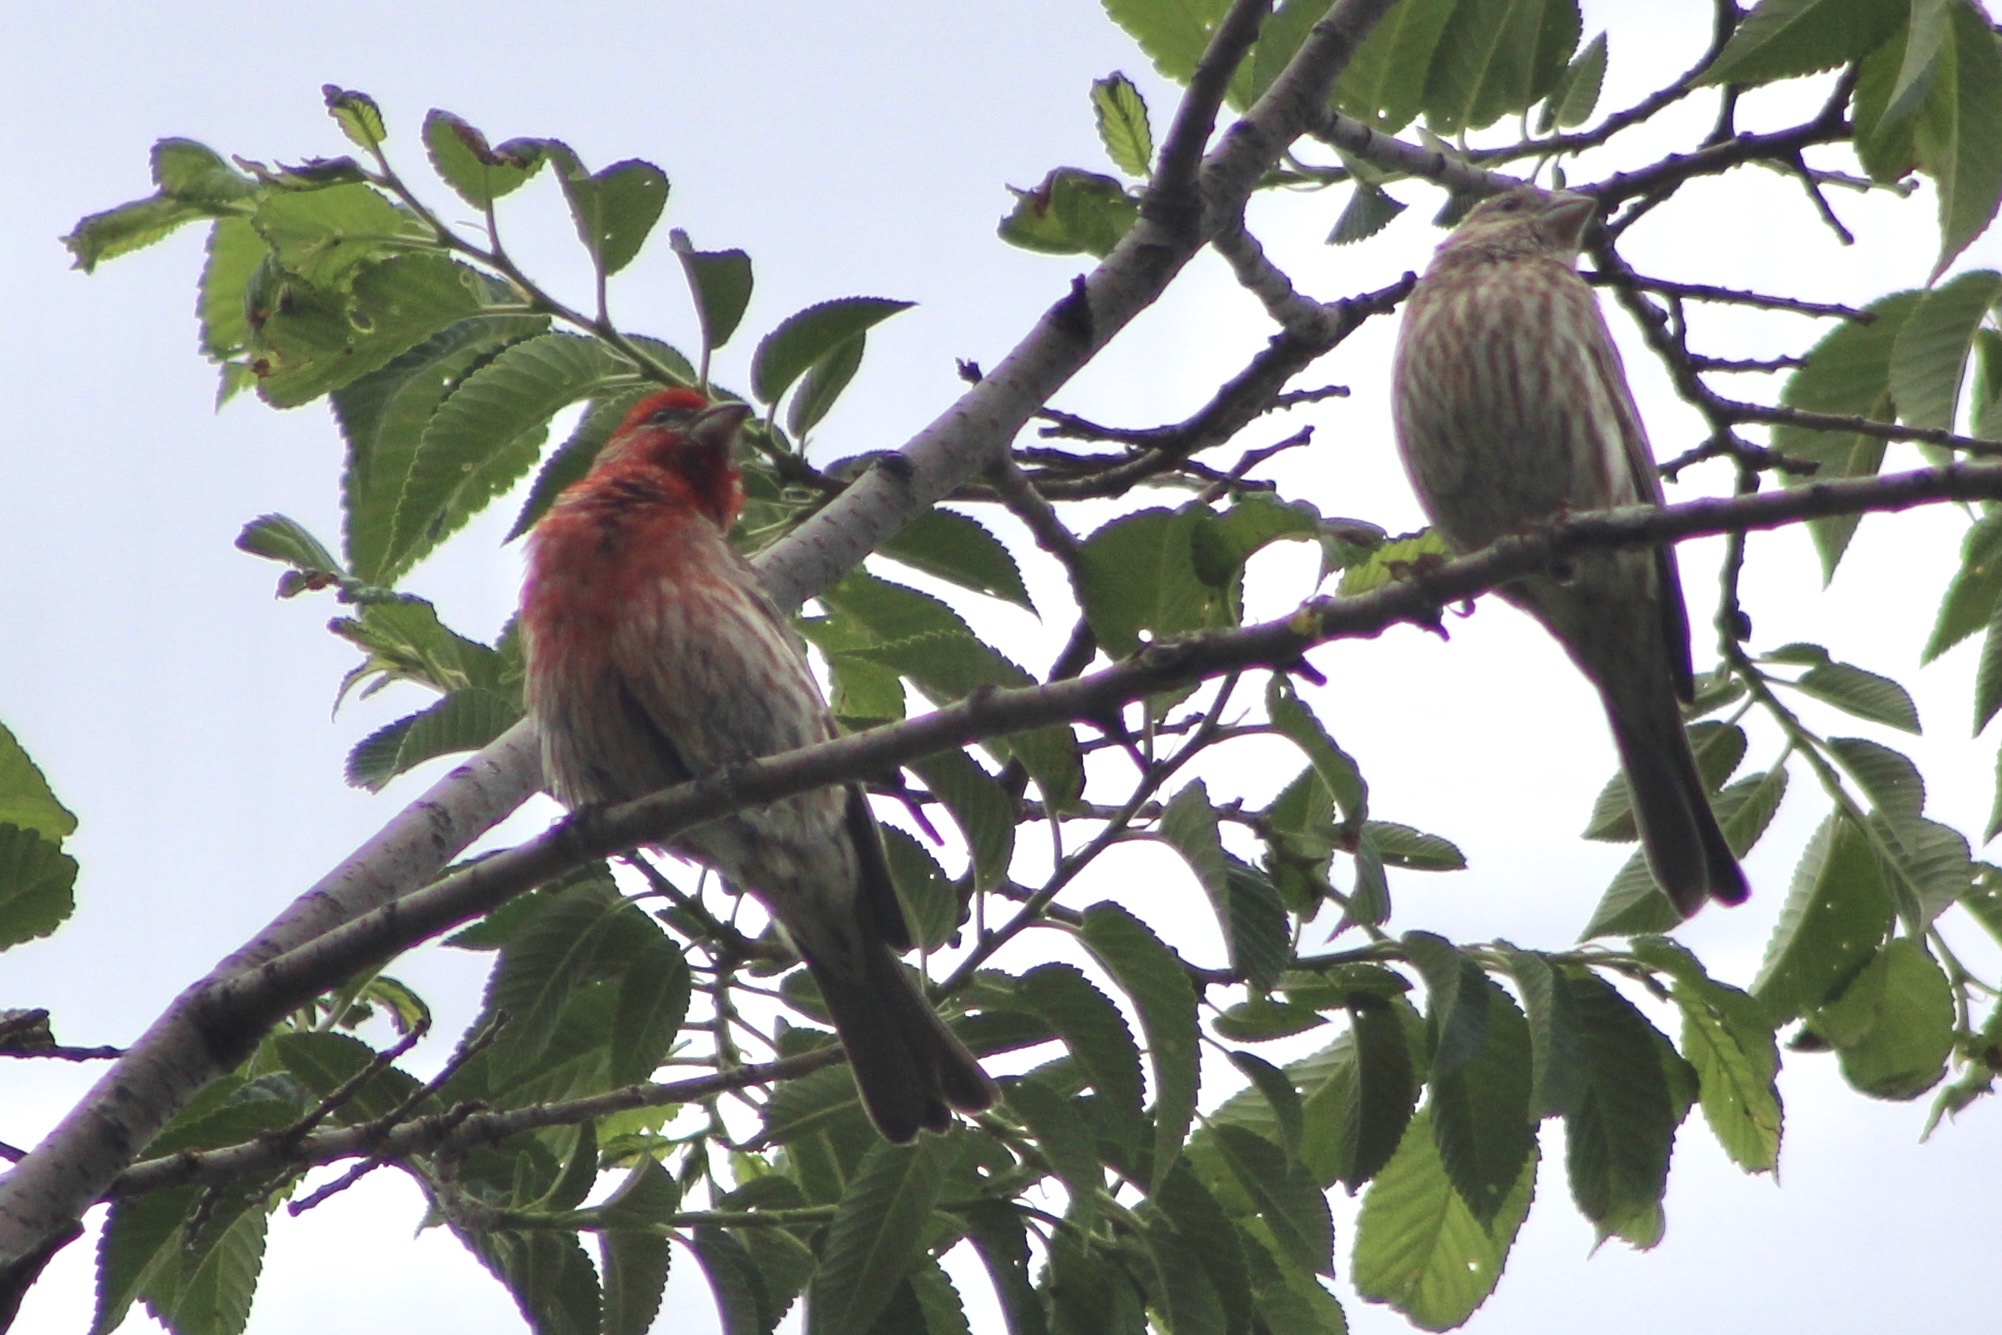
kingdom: Animalia
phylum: Chordata
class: Aves
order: Passeriformes
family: Fringillidae
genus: Haemorhous
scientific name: Haemorhous mexicanus
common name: House finch
